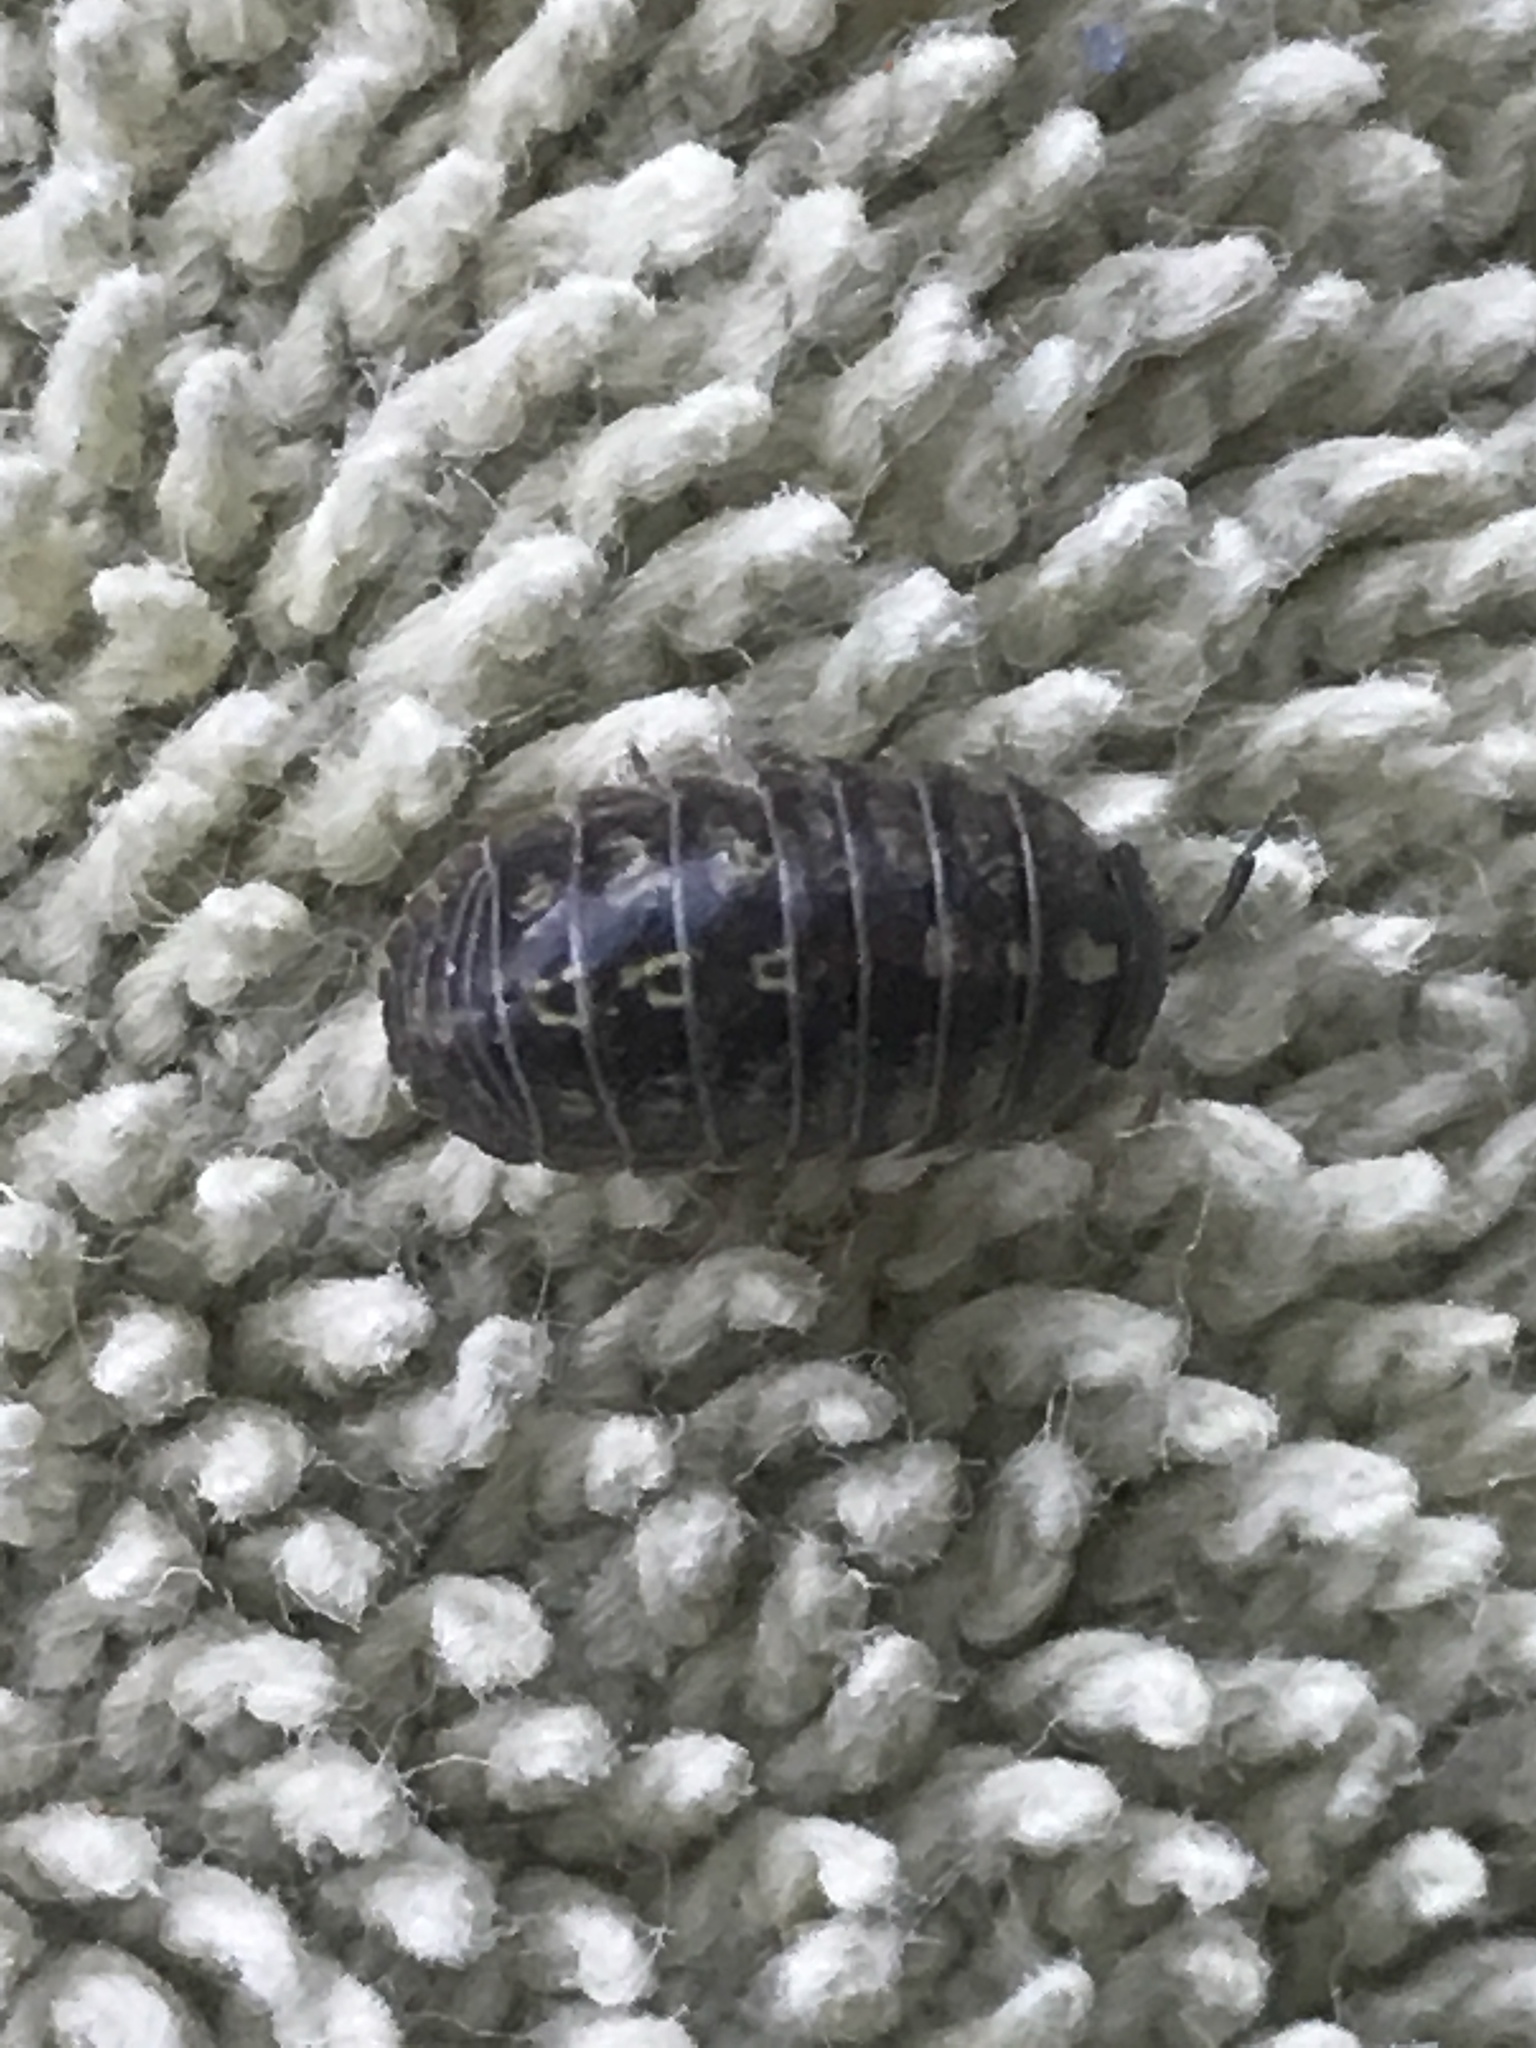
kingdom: Animalia
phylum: Arthropoda
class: Malacostraca
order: Isopoda
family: Armadillidiidae
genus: Armadillidium
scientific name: Armadillidium vulgare
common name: Common pill woodlouse
